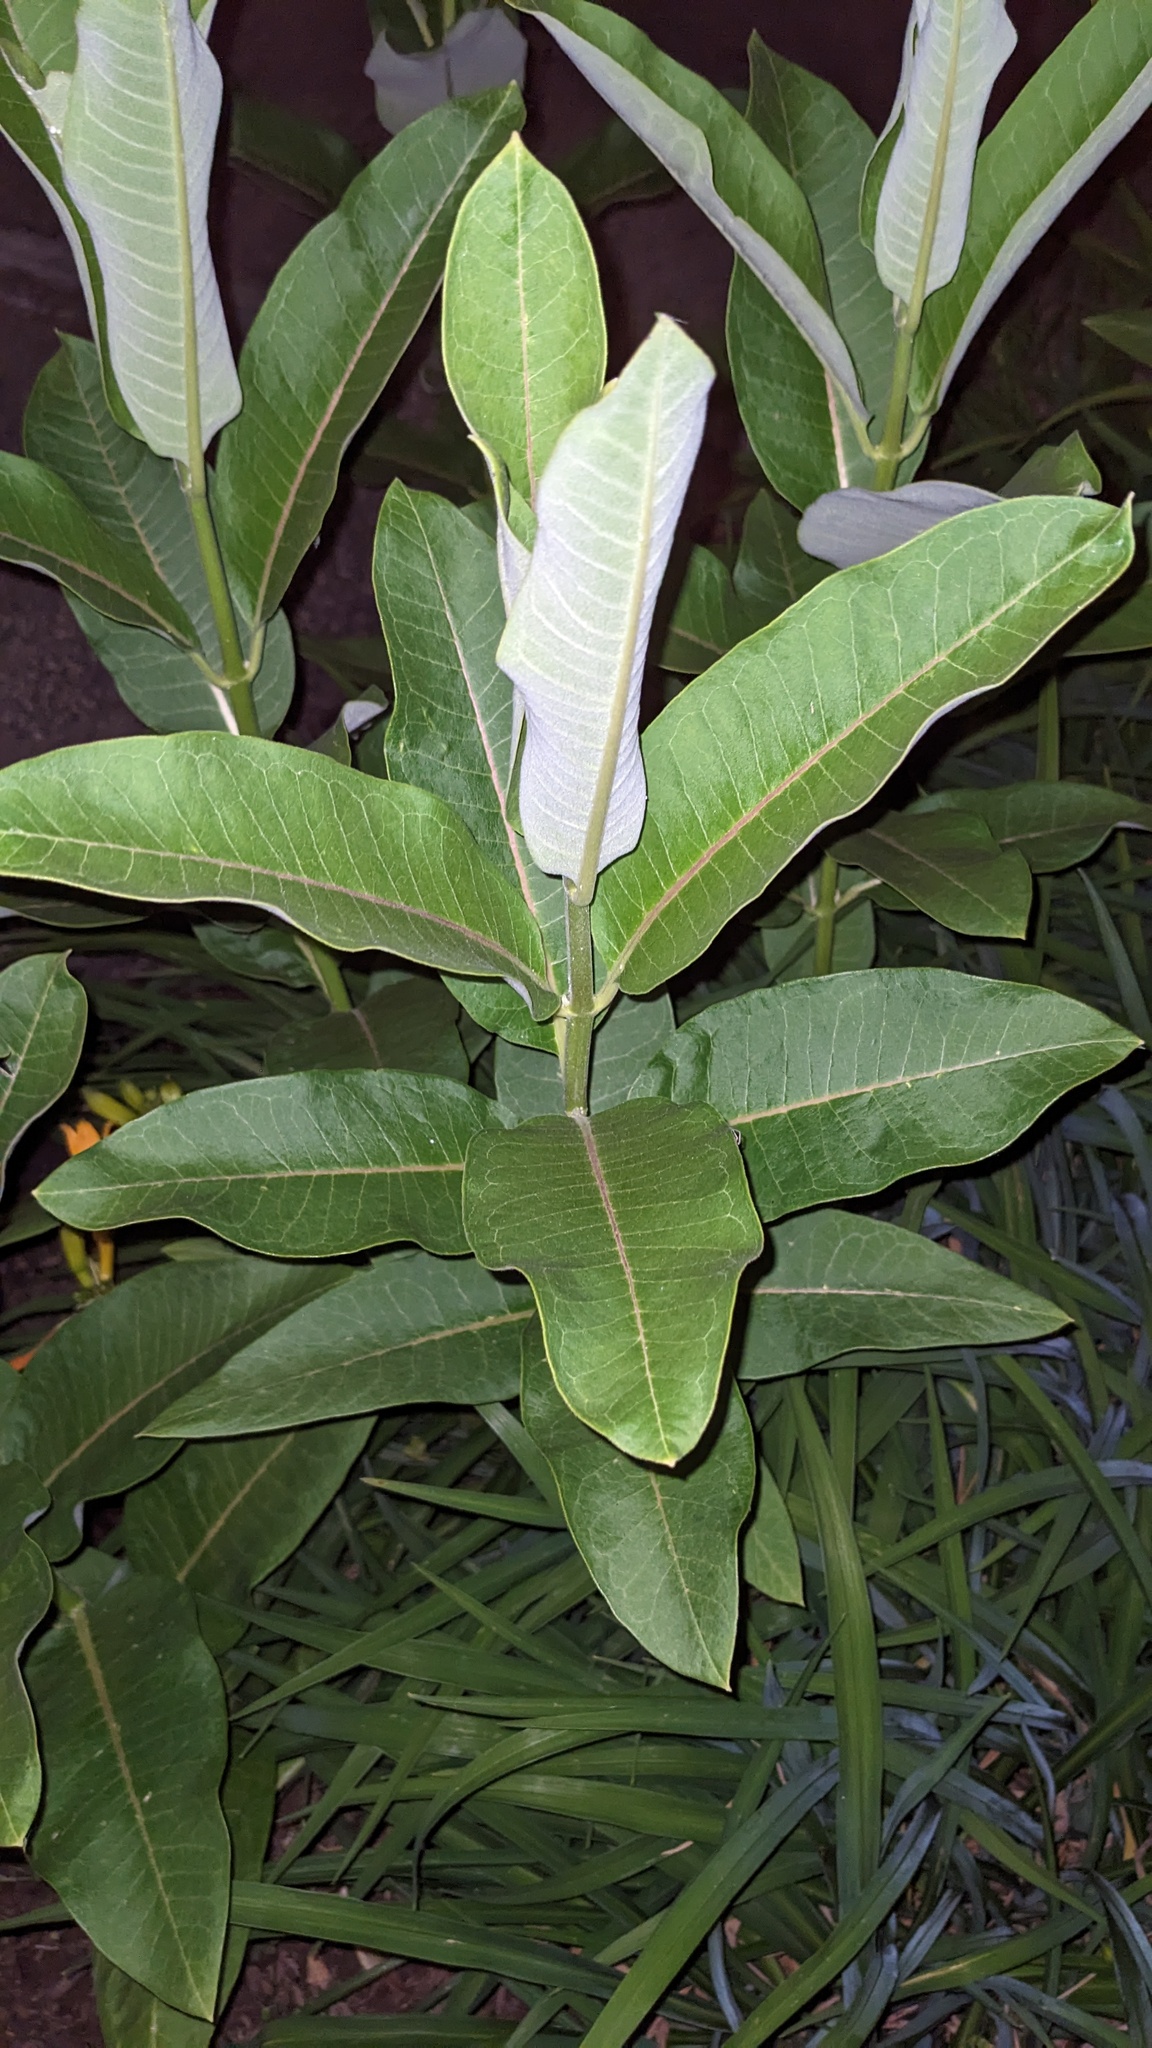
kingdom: Plantae
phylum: Tracheophyta
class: Magnoliopsida
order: Gentianales
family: Apocynaceae
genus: Asclepias
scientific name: Asclepias syriaca
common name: Common milkweed
